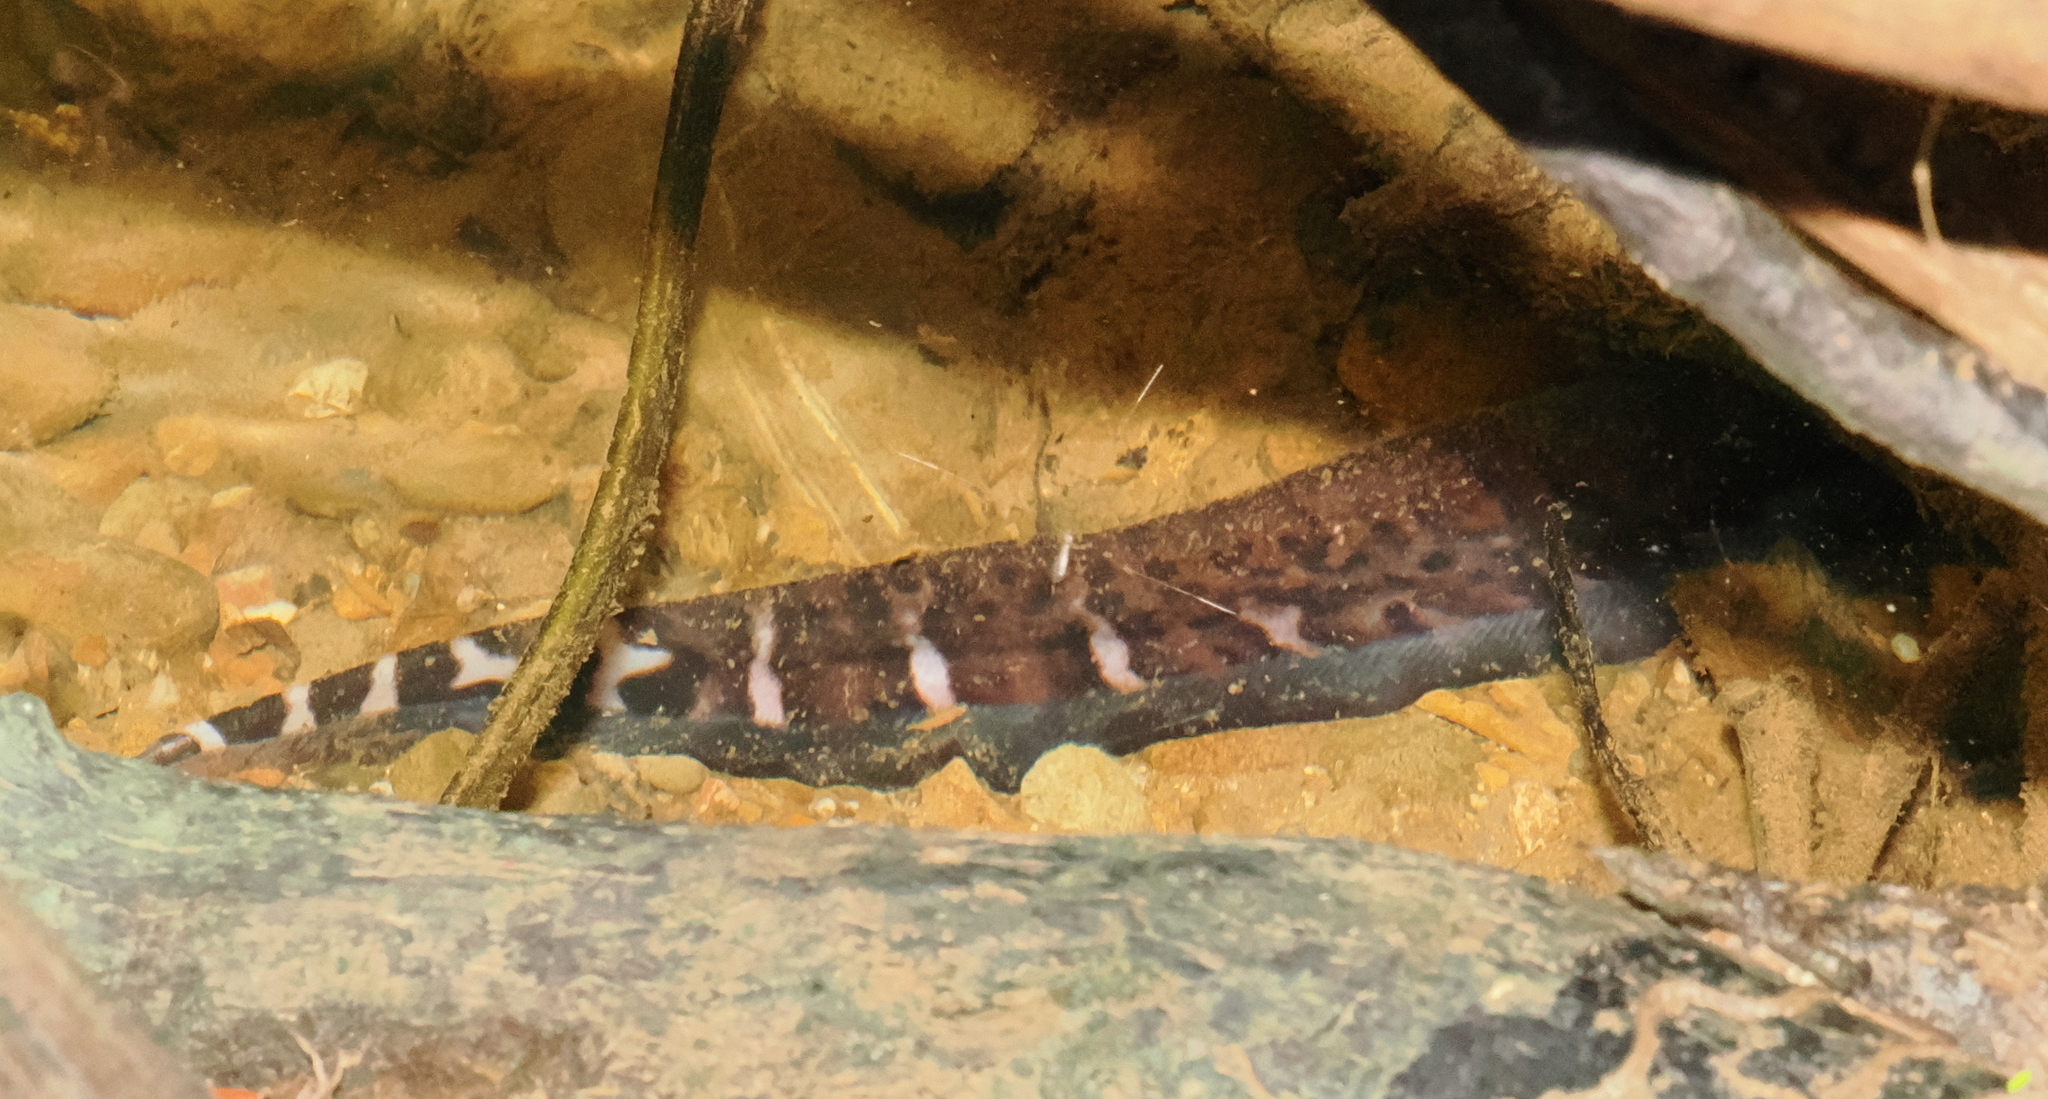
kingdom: Animalia
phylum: Chordata
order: Gymnotiformes
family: Gymnotidae
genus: Gymnotus
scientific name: Gymnotus henni
